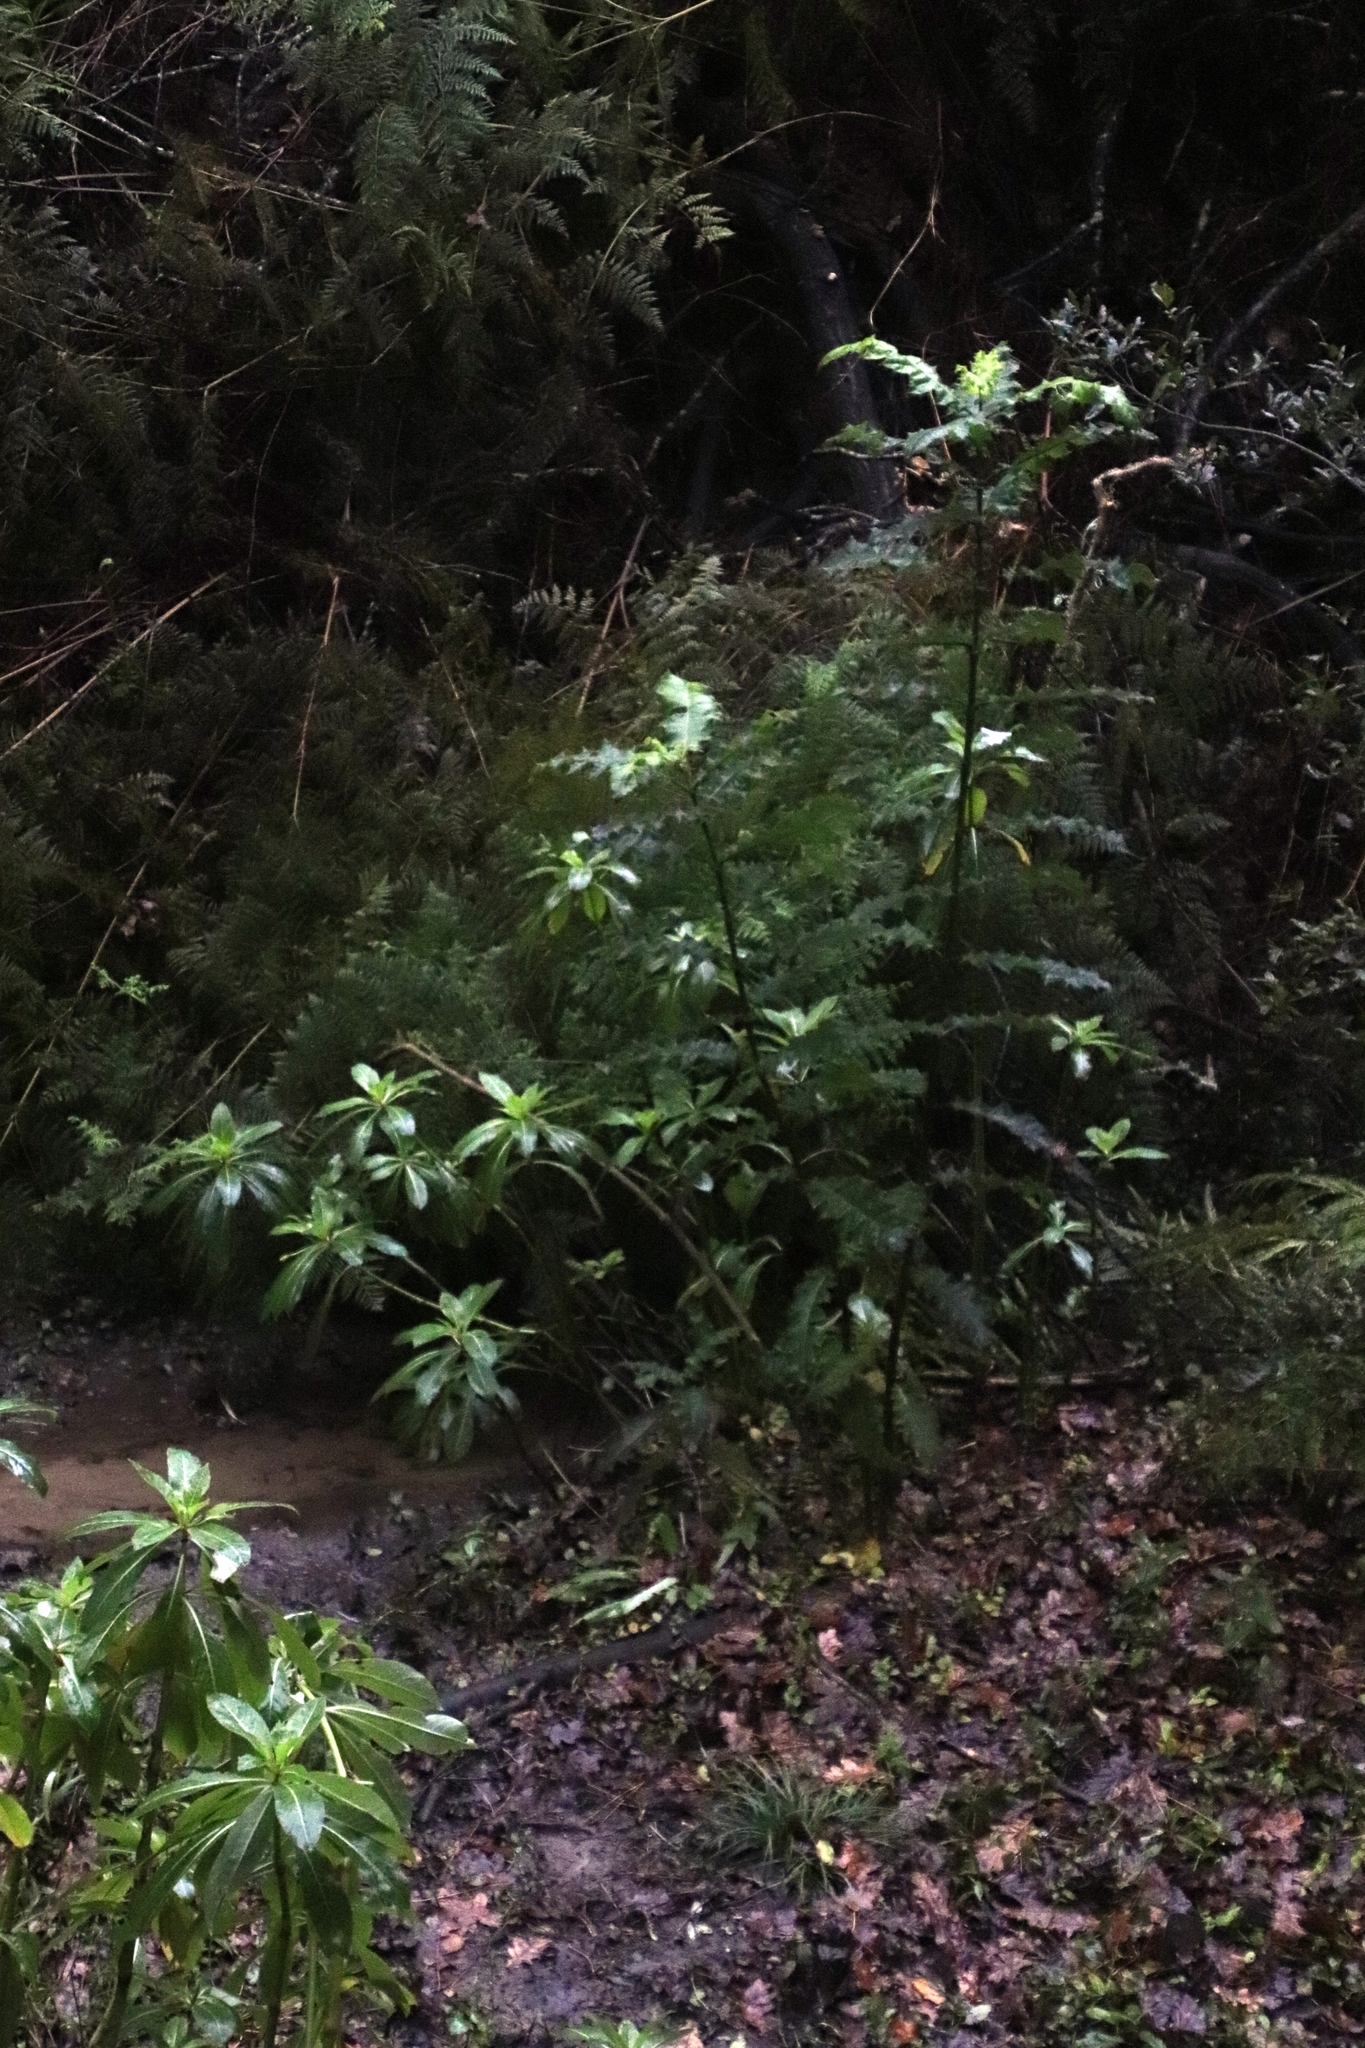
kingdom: Plantae
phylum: Tracheophyta
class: Magnoliopsida
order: Lamiales
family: Acanthaceae
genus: Acanthus
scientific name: Acanthus polystachyus
